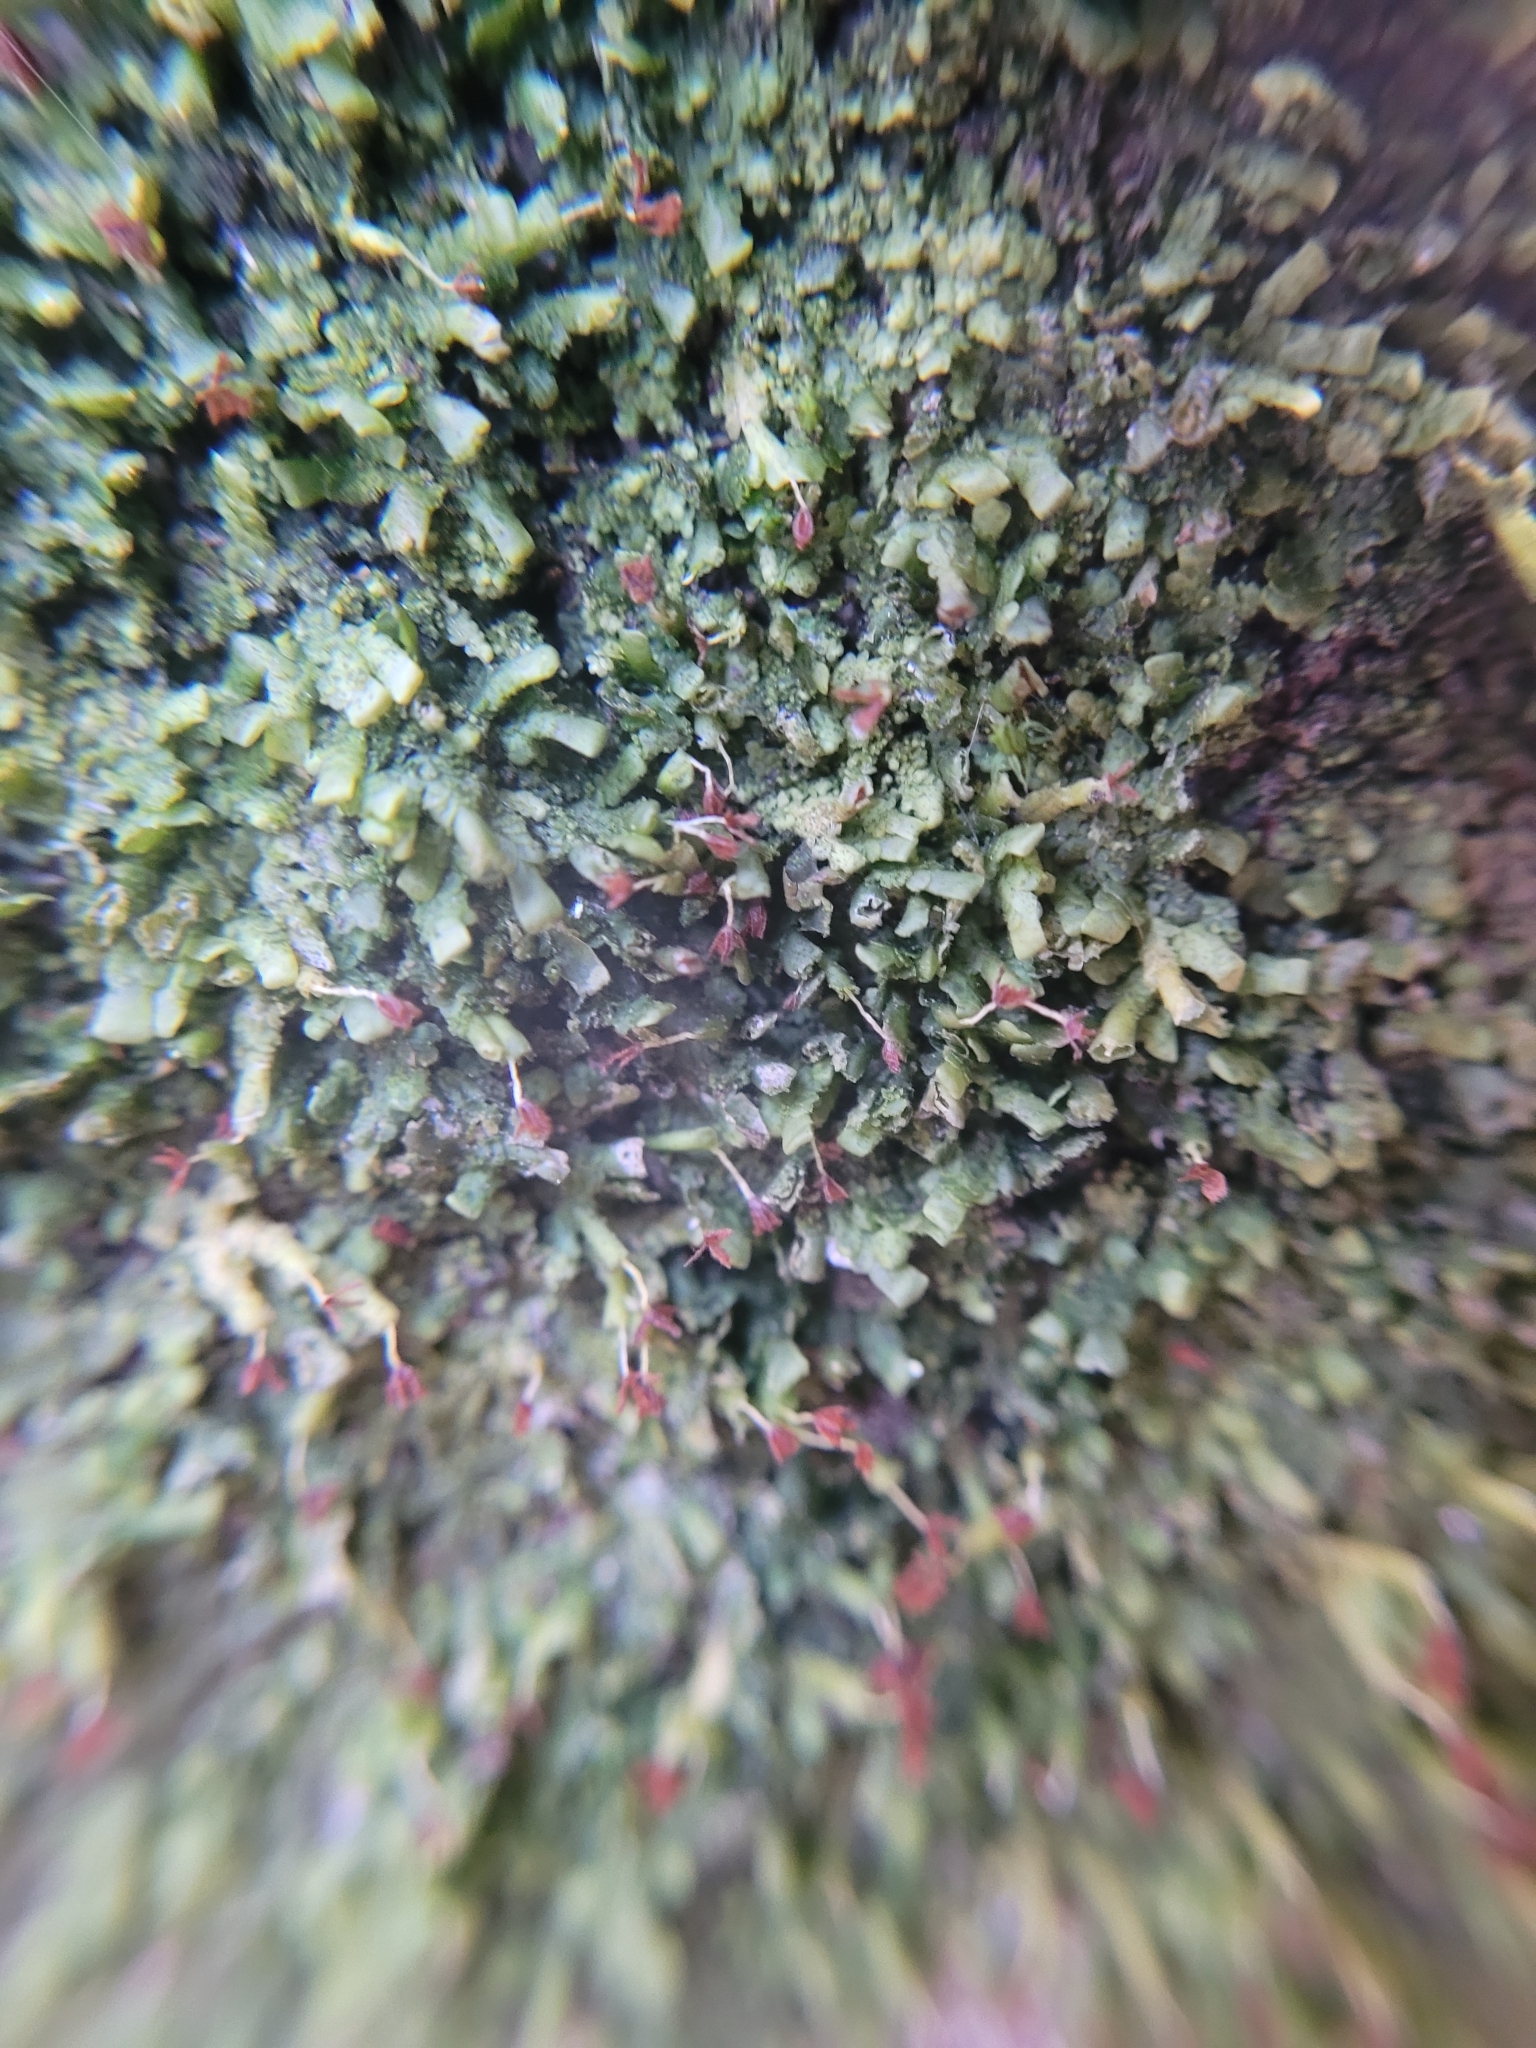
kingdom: Plantae
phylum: Marchantiophyta
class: Jungermanniopsida
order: Porellales
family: Radulaceae
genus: Radula
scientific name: Radula complanata
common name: Flat-leaved scalewort
